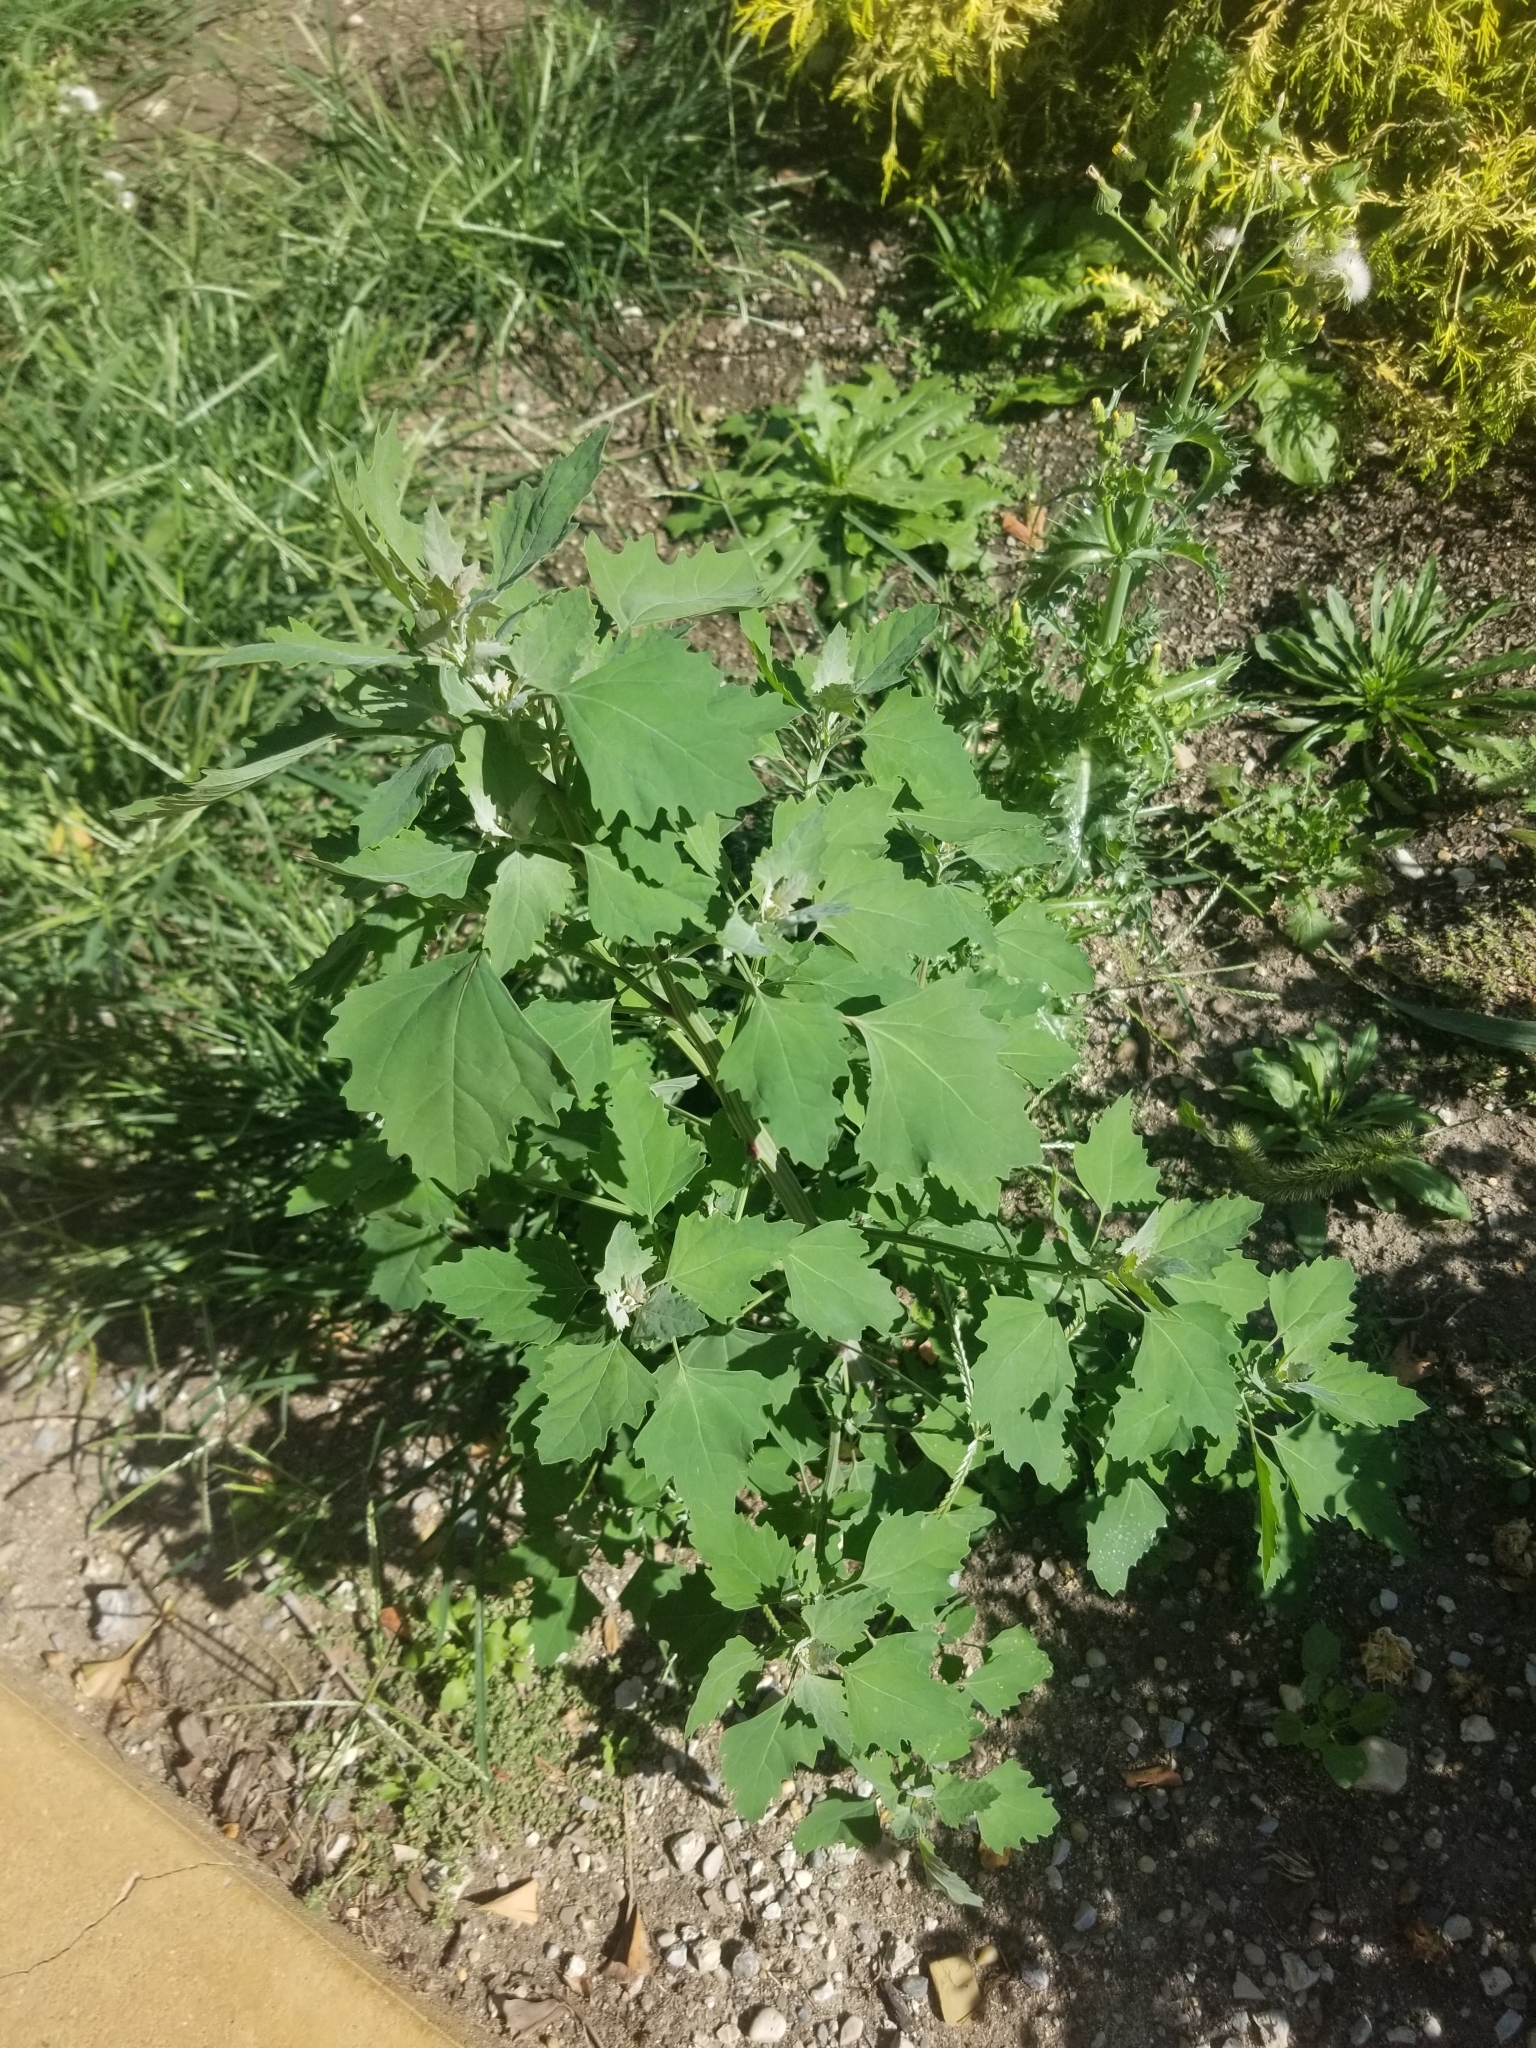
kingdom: Plantae
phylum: Tracheophyta
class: Magnoliopsida
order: Caryophyllales
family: Amaranthaceae
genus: Chenopodium
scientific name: Chenopodium album
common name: Fat-hen
